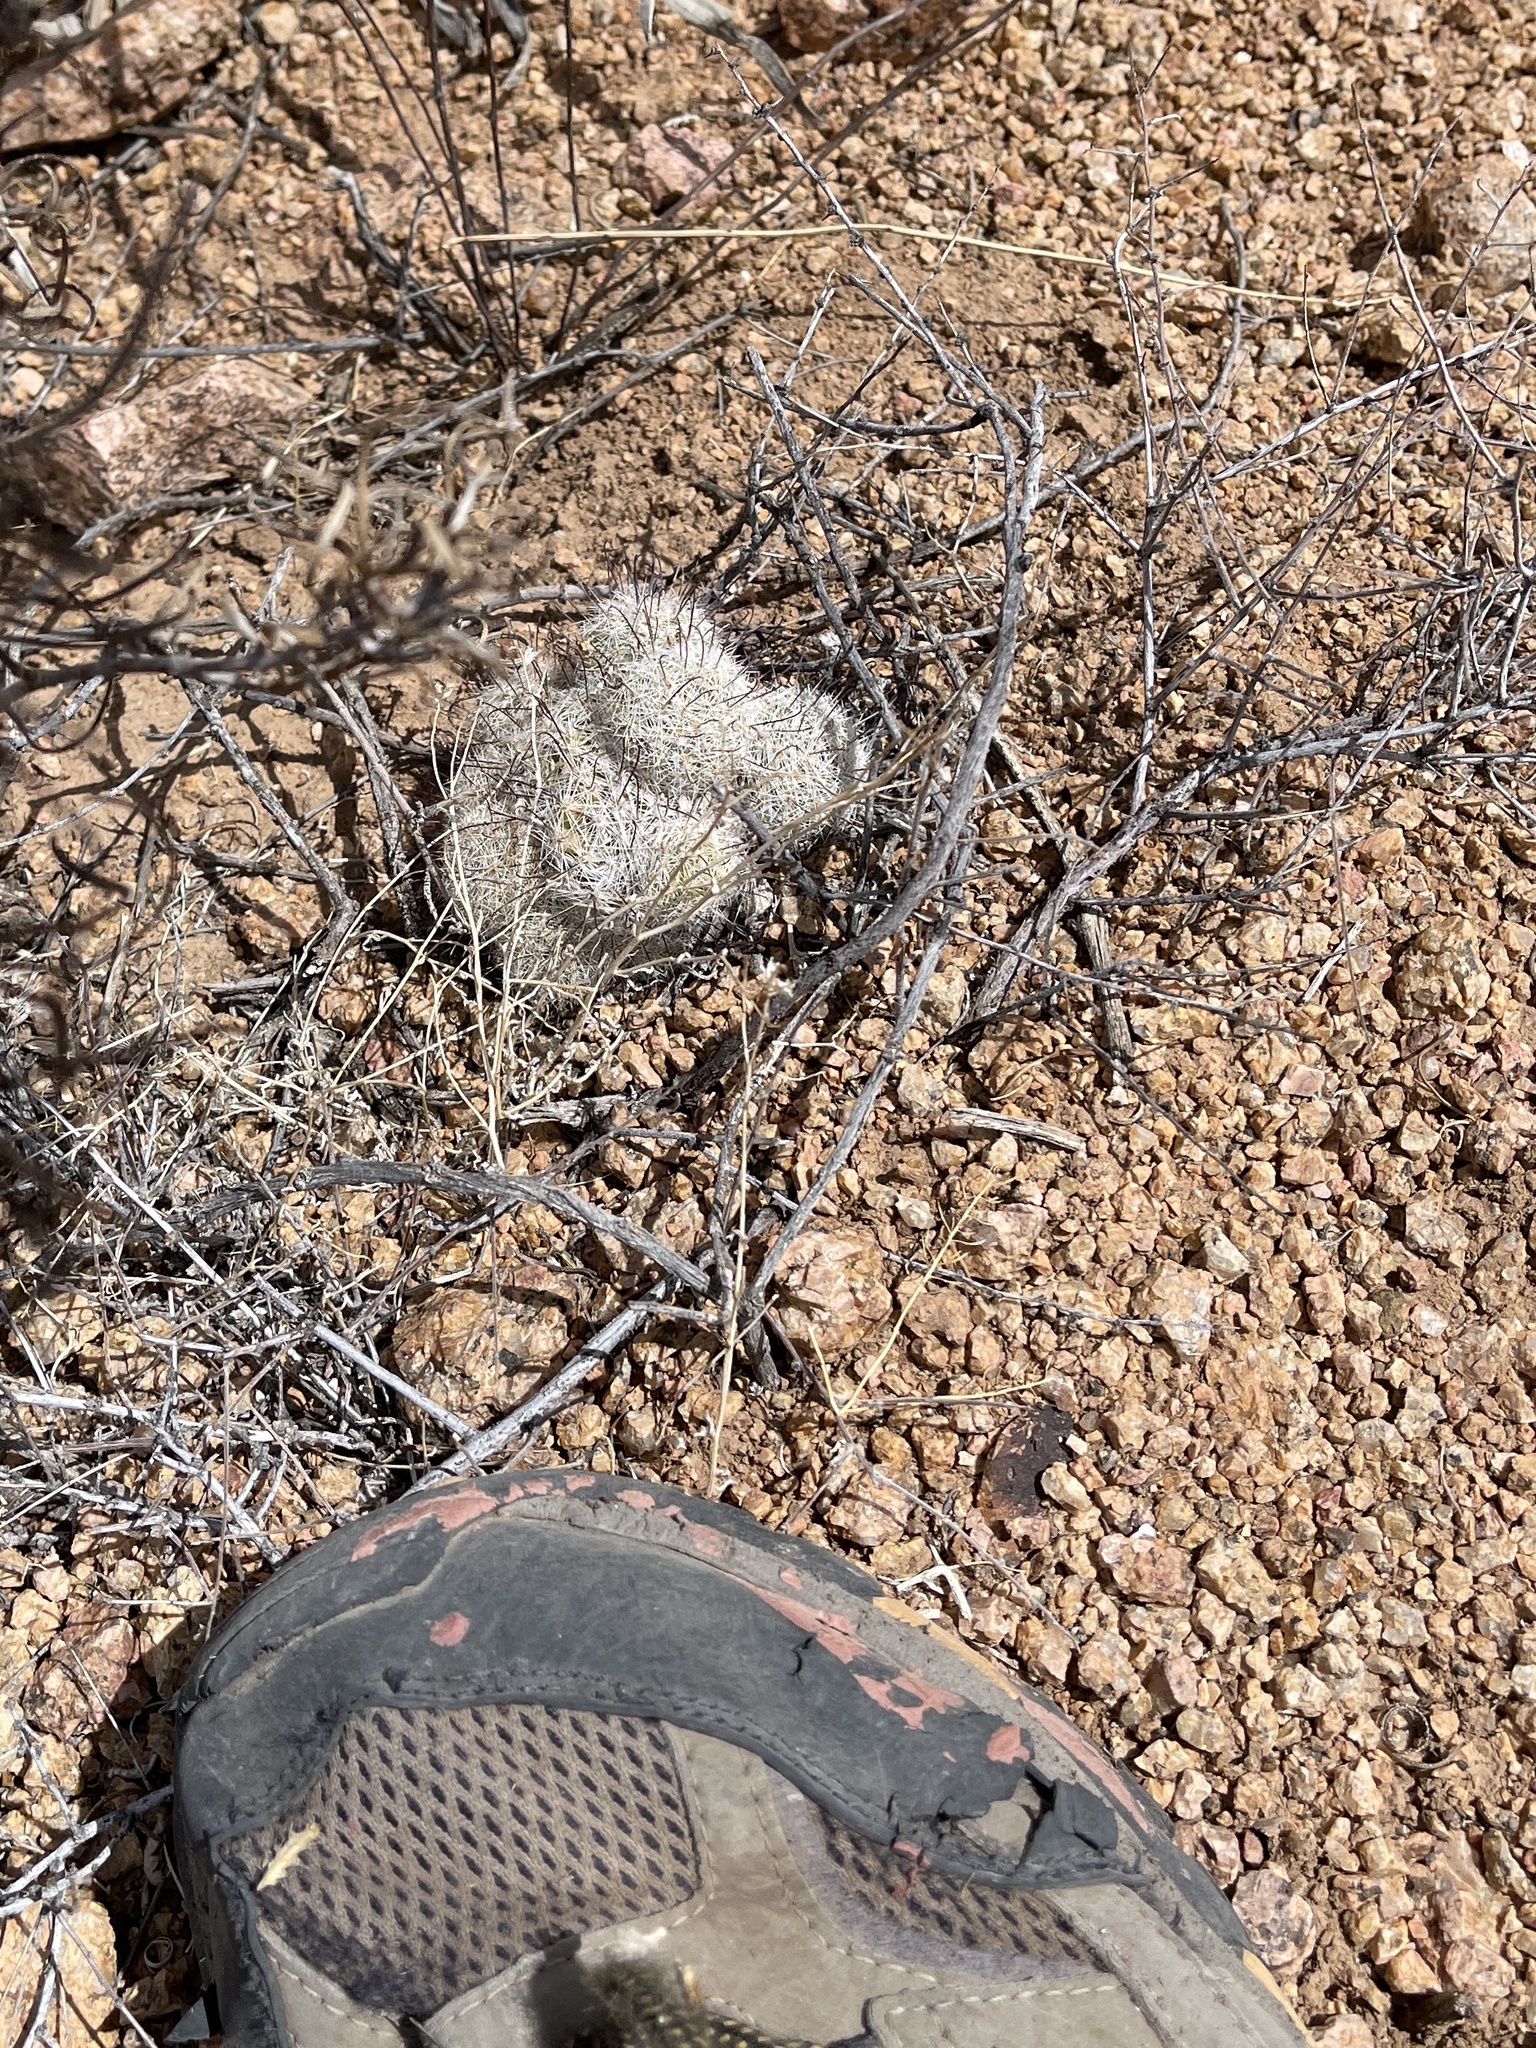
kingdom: Plantae
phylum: Tracheophyta
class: Magnoliopsida
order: Caryophyllales
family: Cactaceae
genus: Cochemiea
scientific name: Cochemiea grahamii
